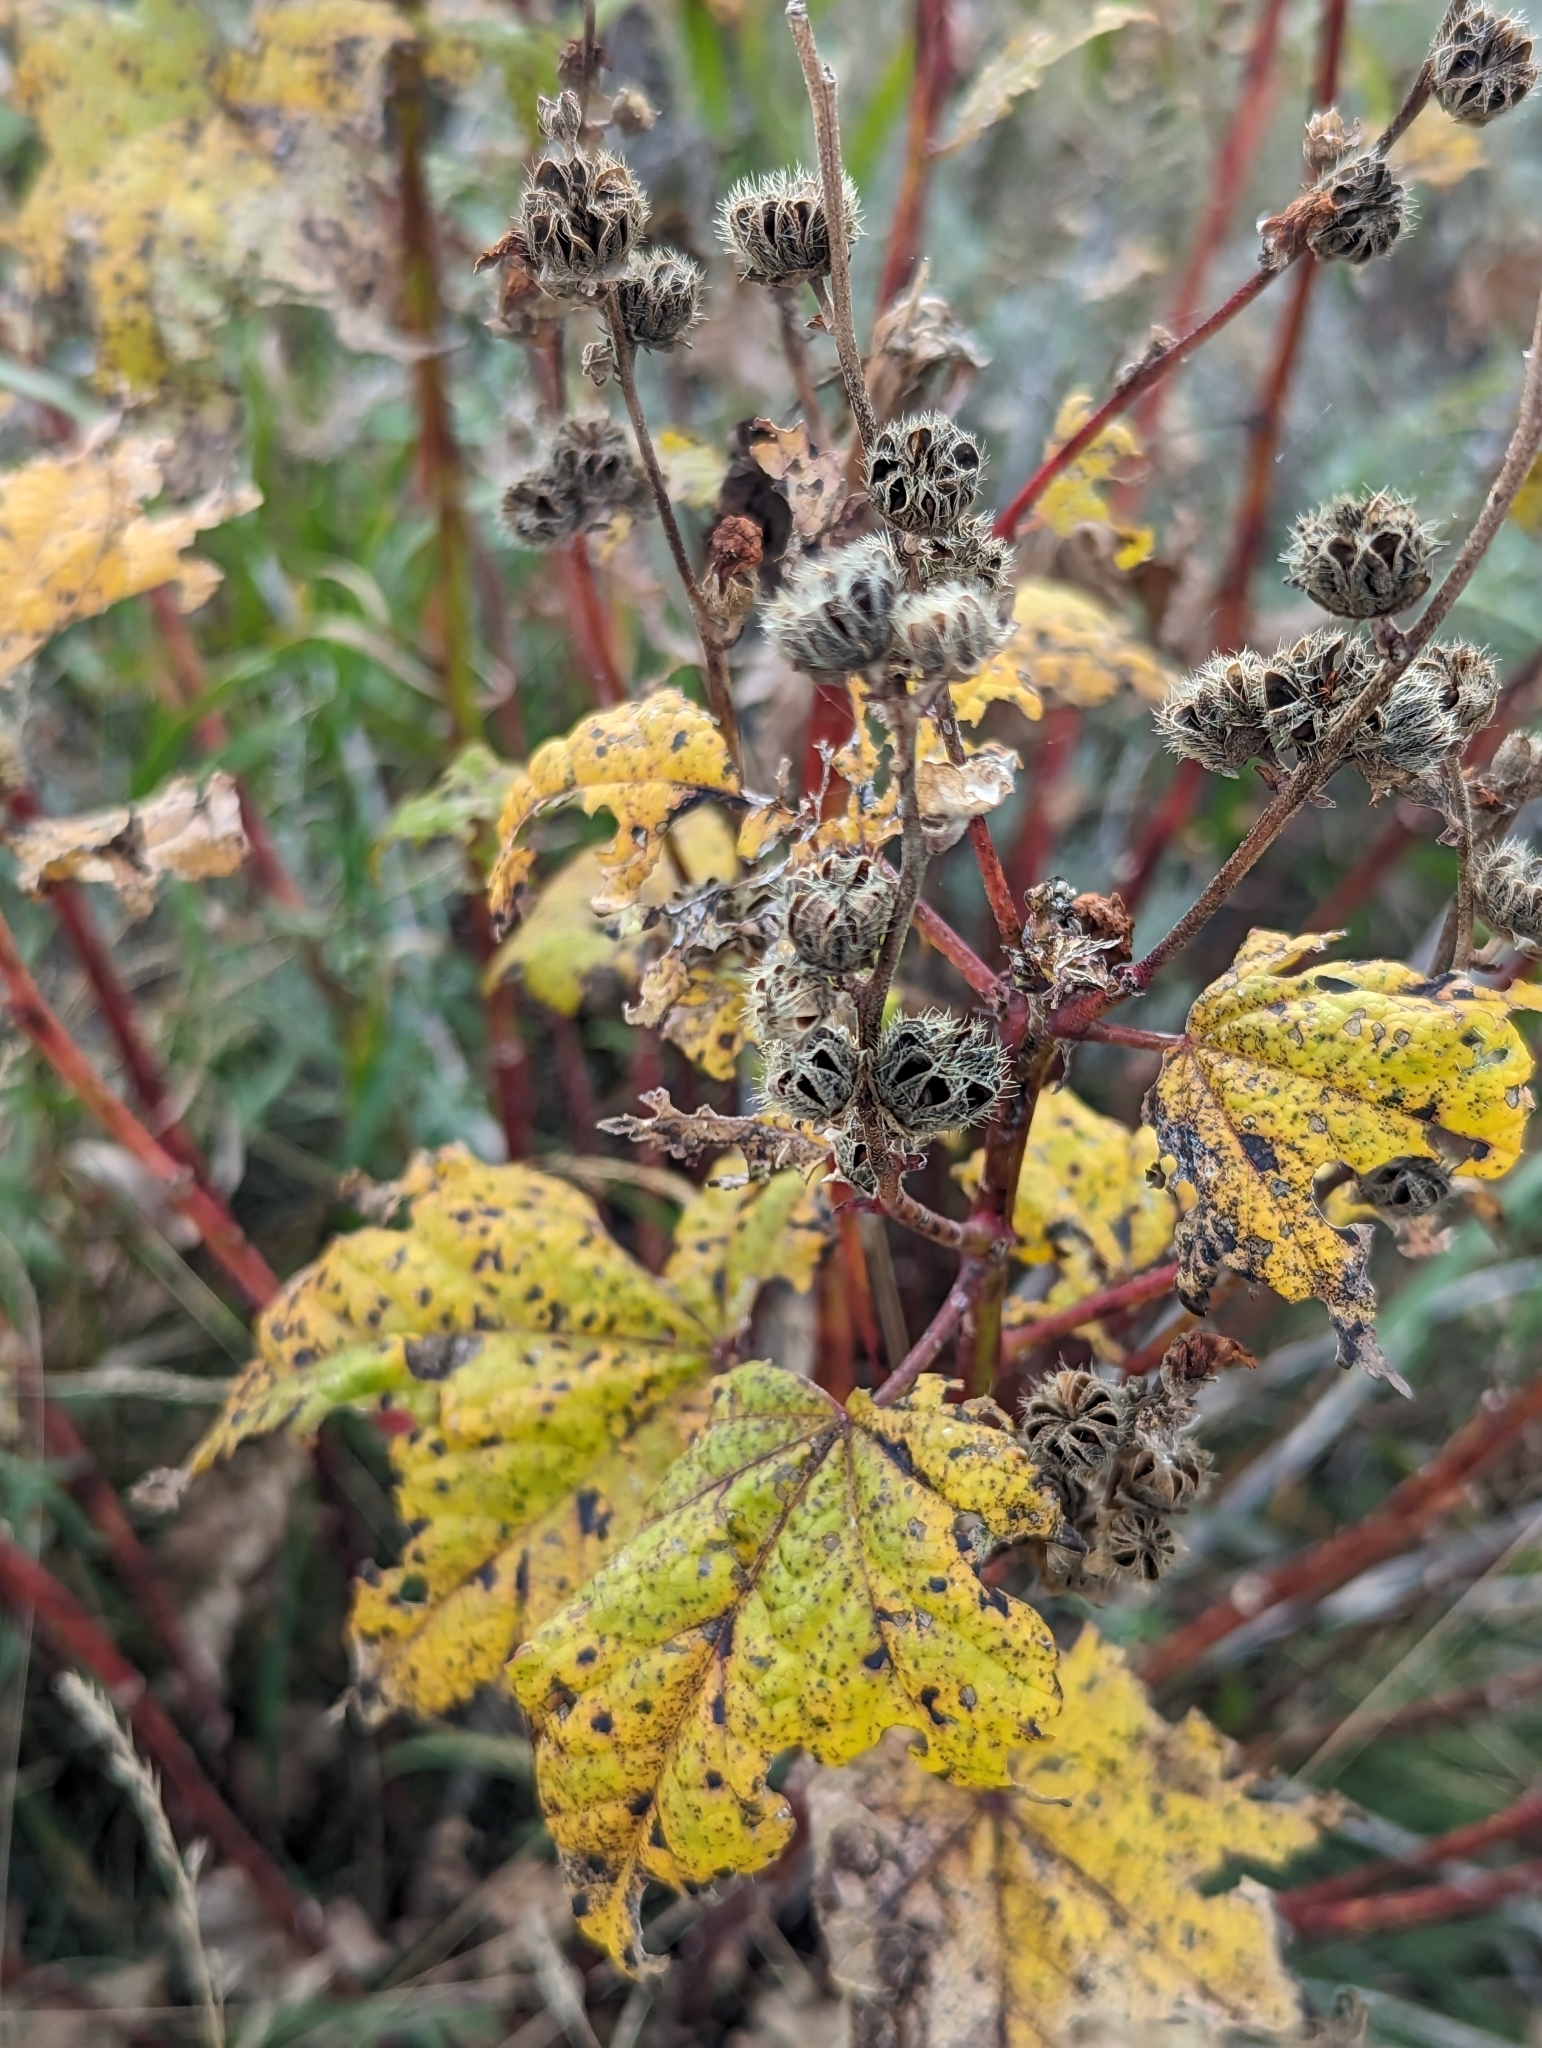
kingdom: Plantae
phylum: Tracheophyta
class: Magnoliopsida
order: Malvales
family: Malvaceae
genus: Iliamna
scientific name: Iliamna rivularis
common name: Wild hollyhock
